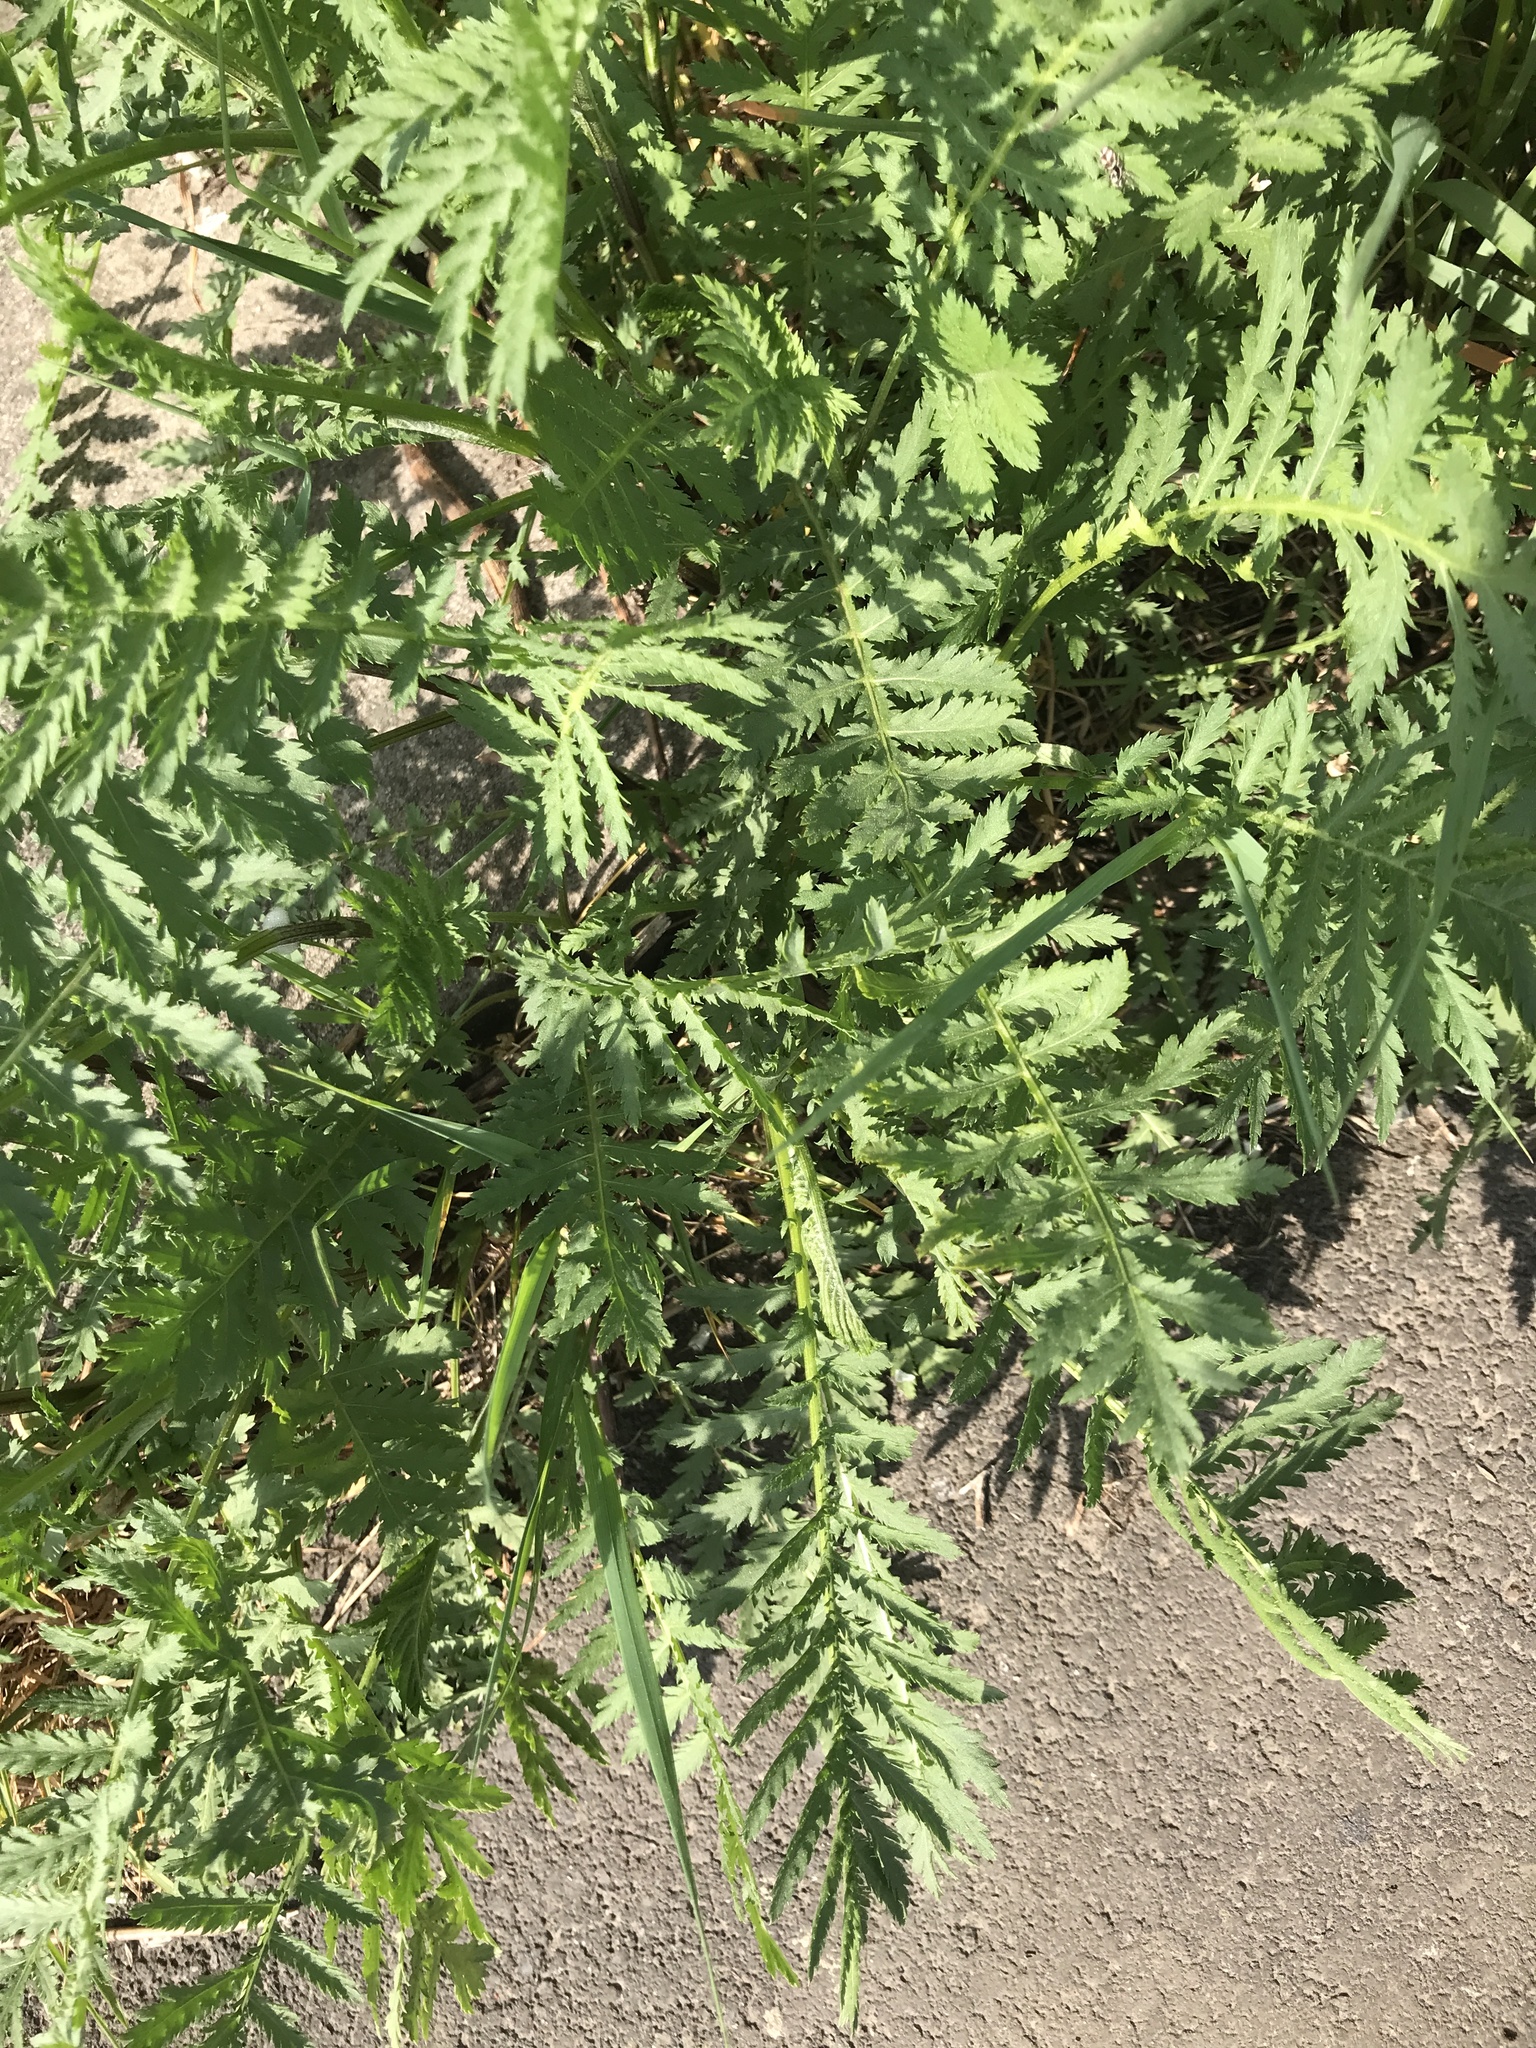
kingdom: Plantae
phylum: Tracheophyta
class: Magnoliopsida
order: Asterales
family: Asteraceae
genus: Tanacetum
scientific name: Tanacetum vulgare
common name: Common tansy
